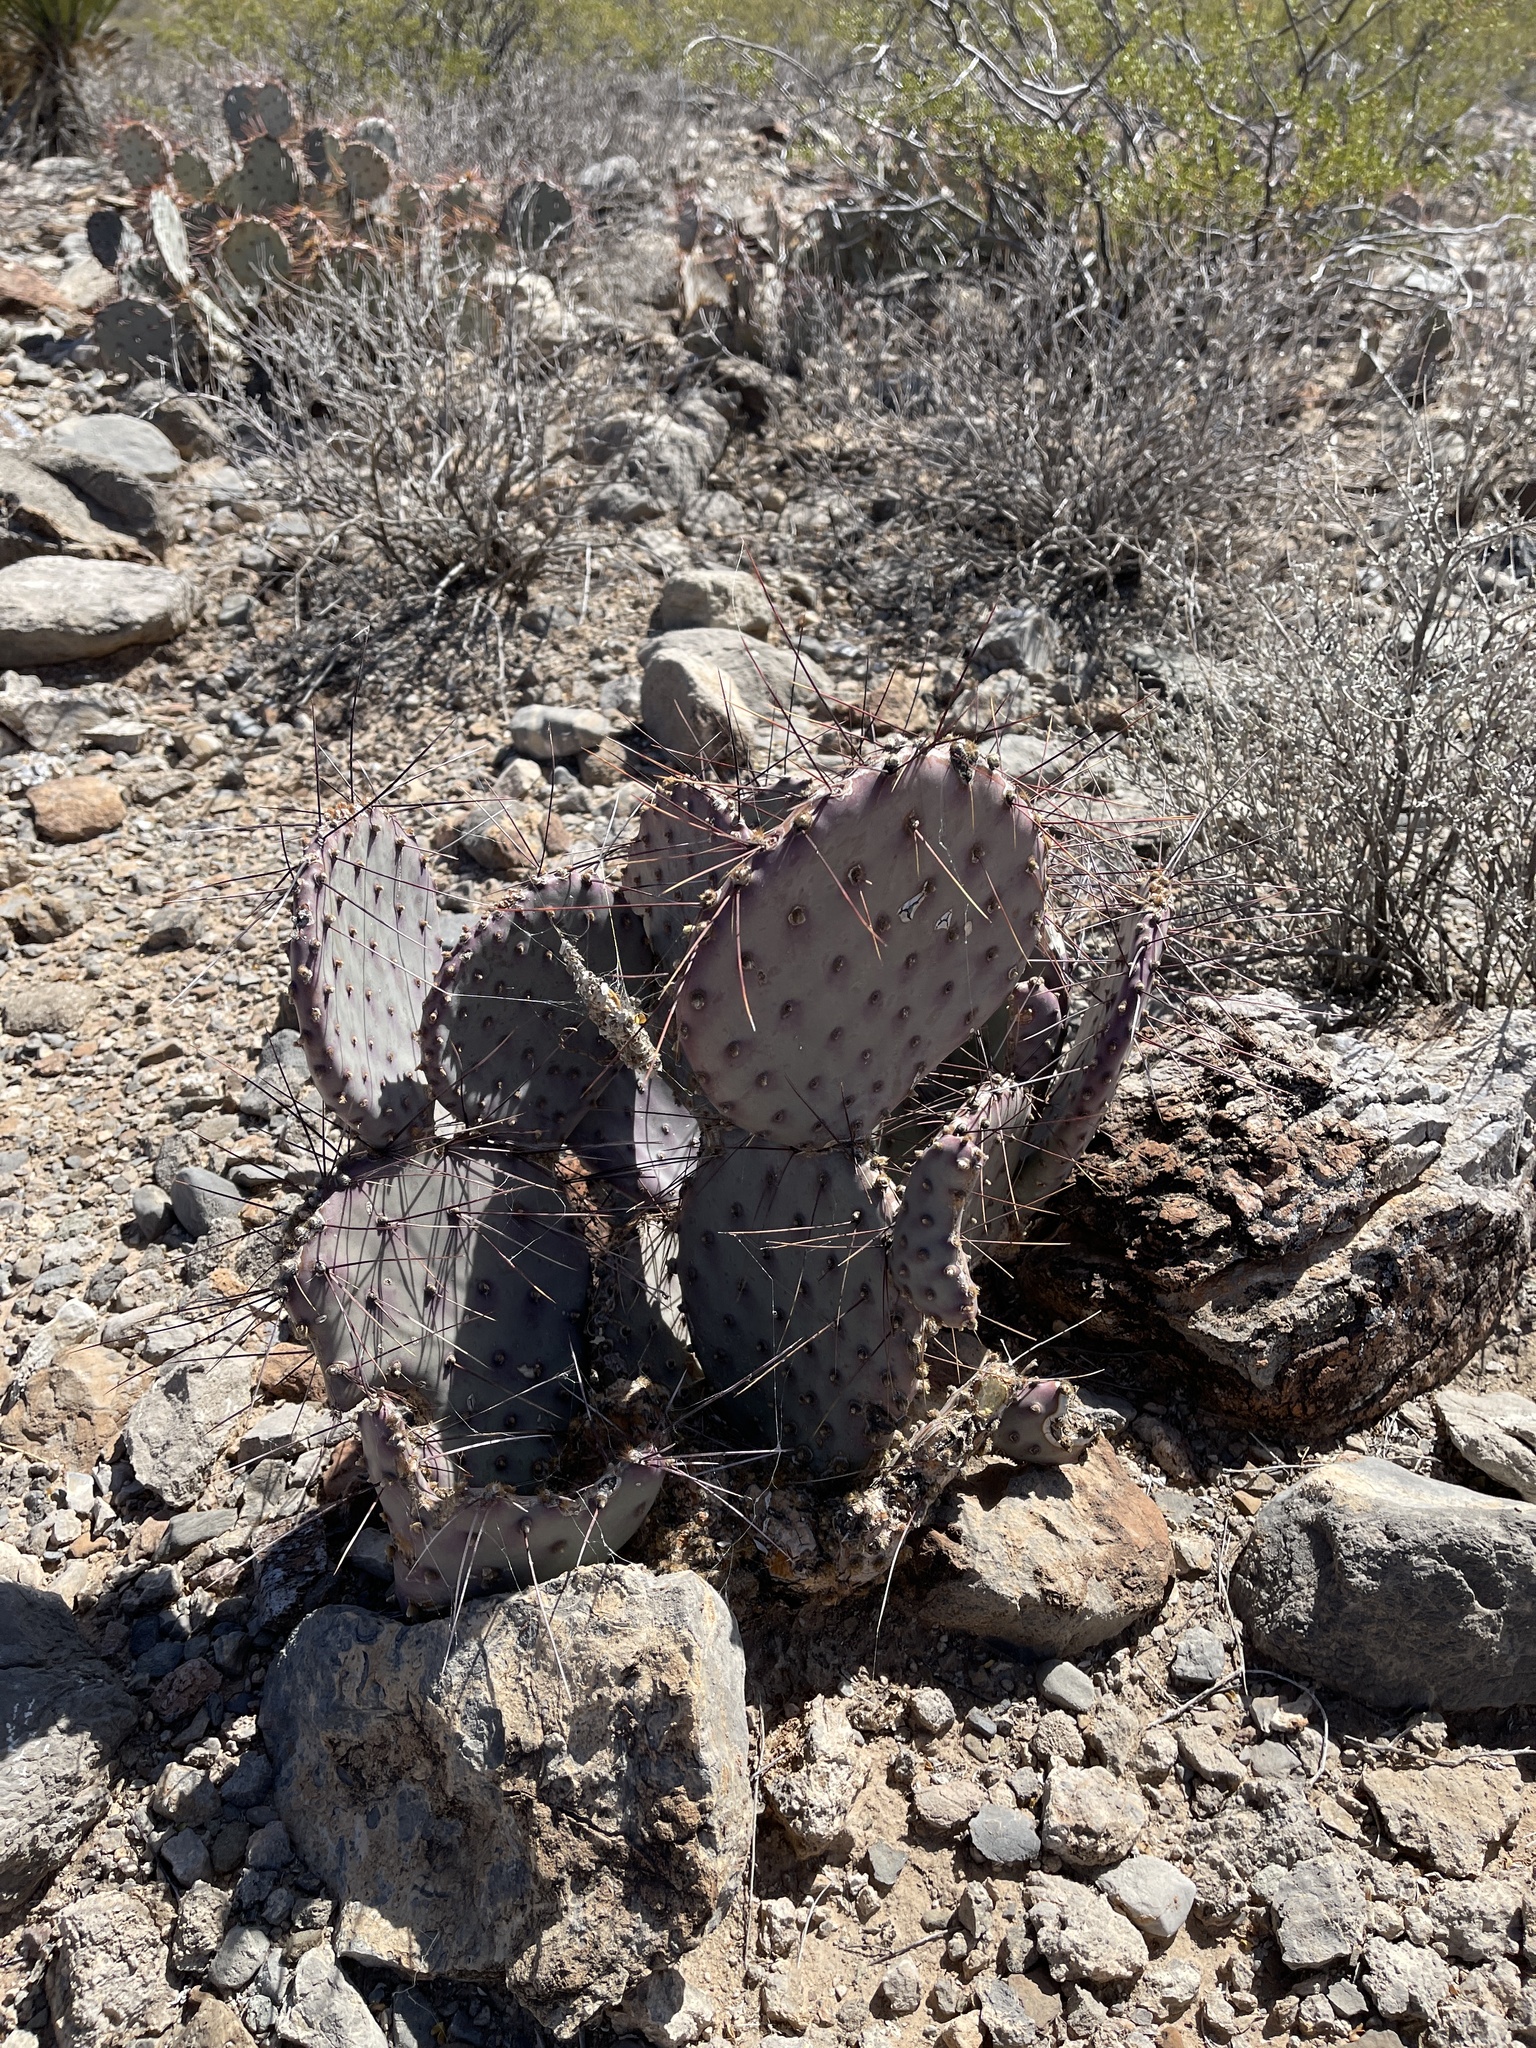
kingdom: Plantae
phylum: Tracheophyta
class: Magnoliopsida
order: Caryophyllales
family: Cactaceae
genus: Opuntia
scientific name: Opuntia macrocentra
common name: Purple prickly-pear
